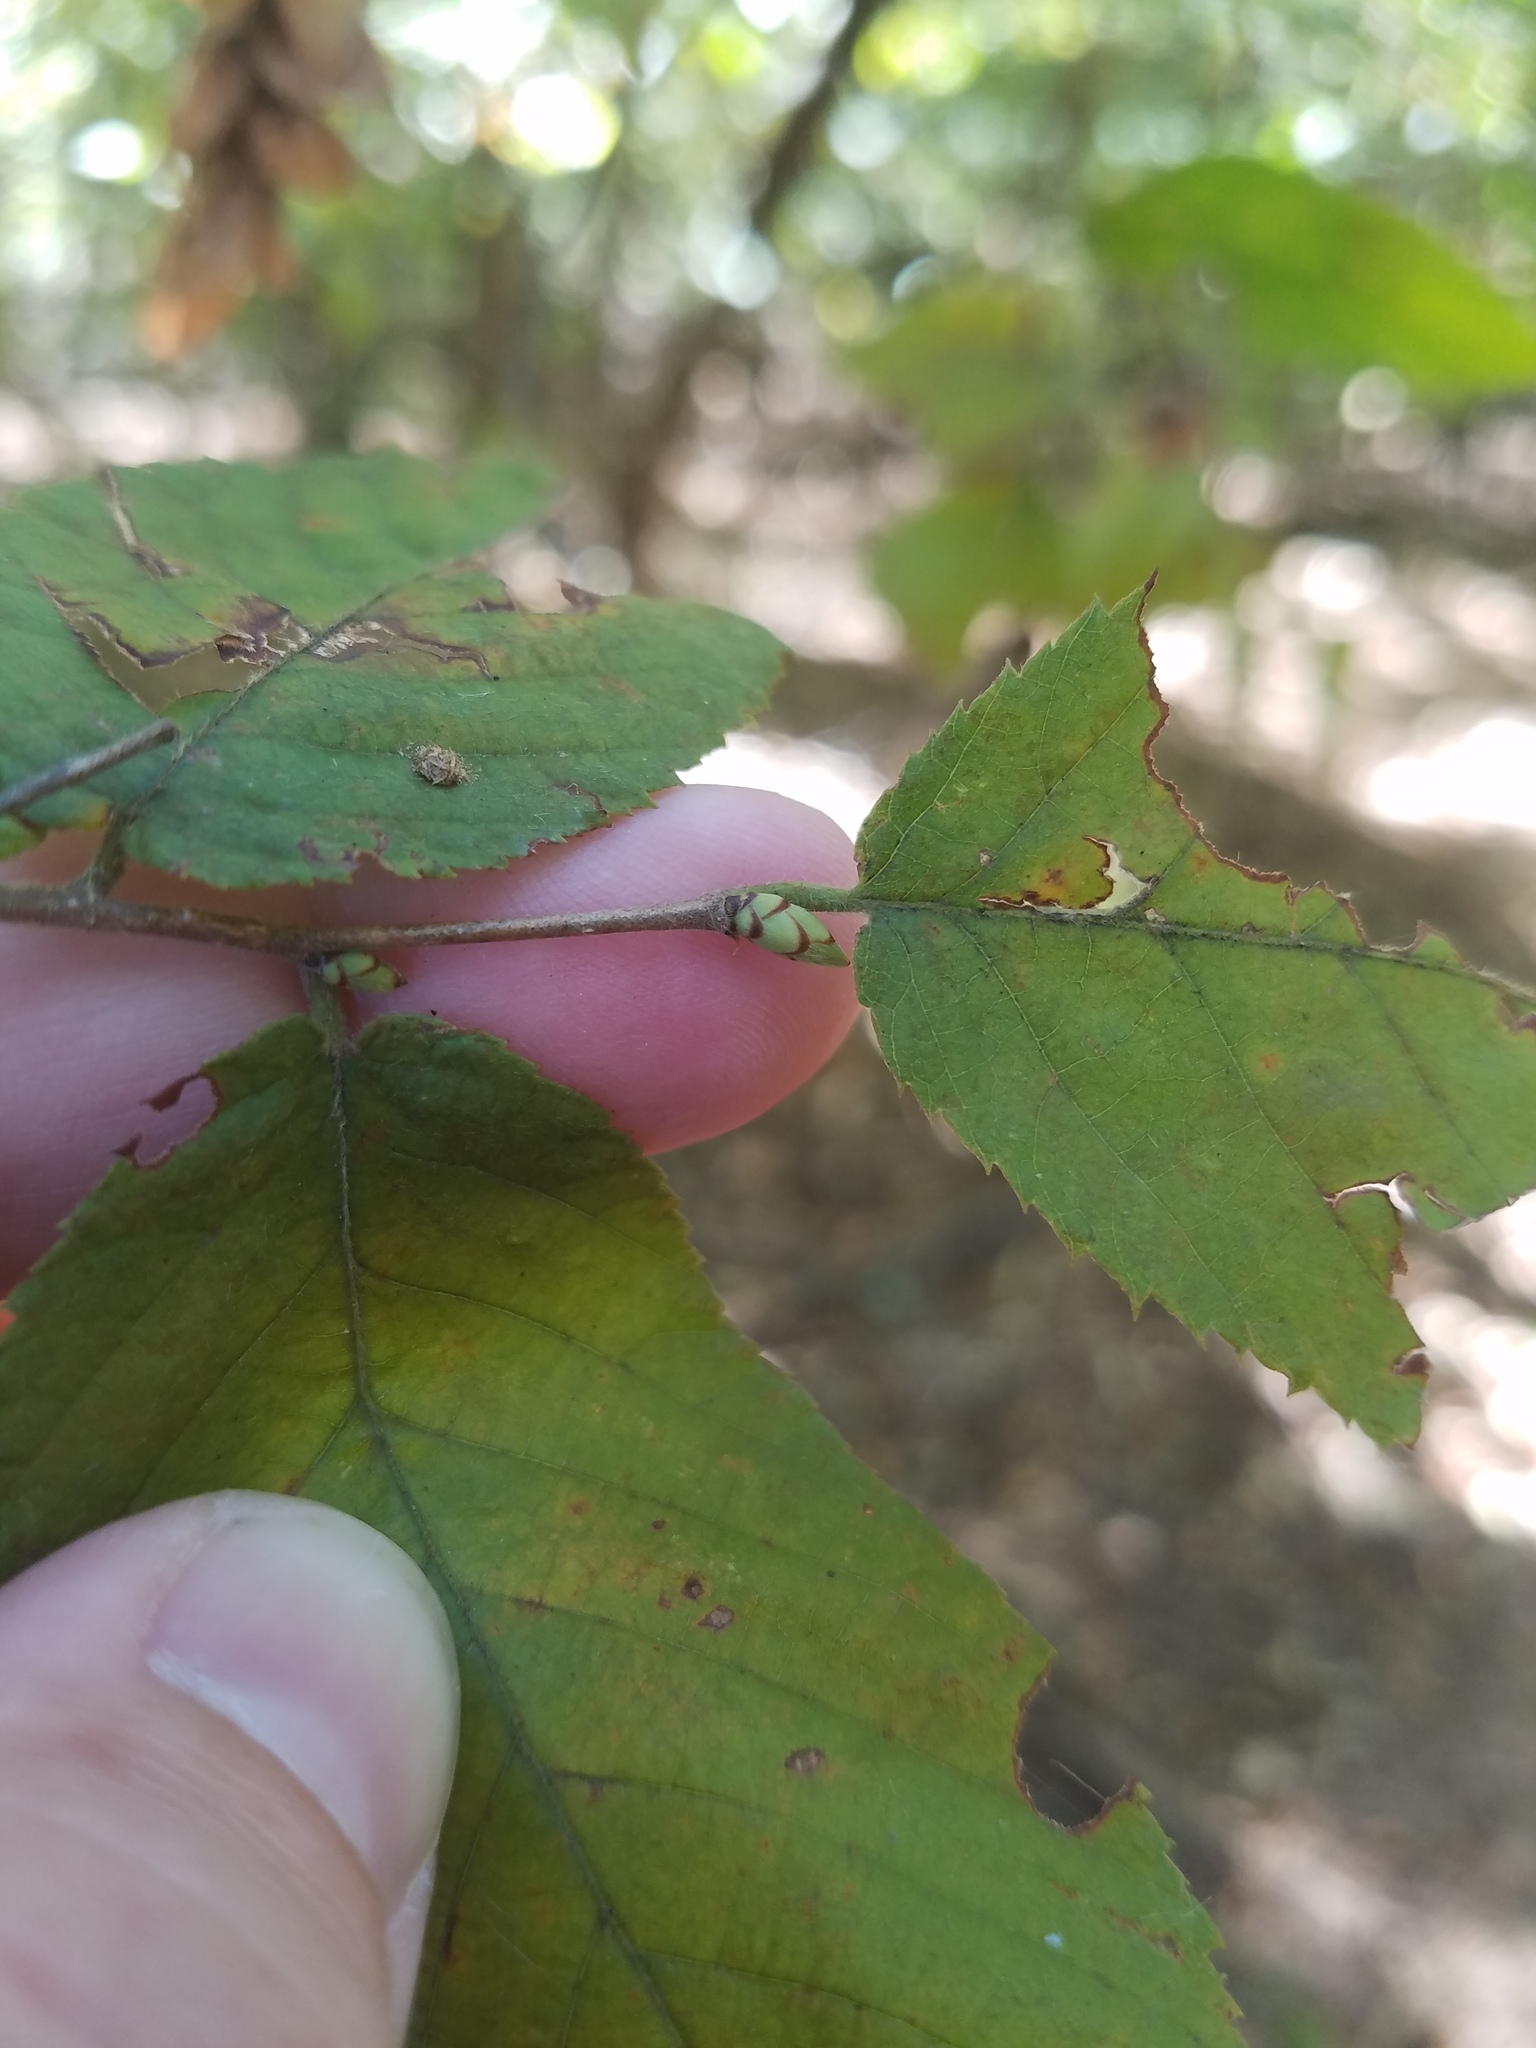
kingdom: Plantae
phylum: Tracheophyta
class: Magnoliopsida
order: Fagales
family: Betulaceae
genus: Ostrya
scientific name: Ostrya virginiana
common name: Ironwood
